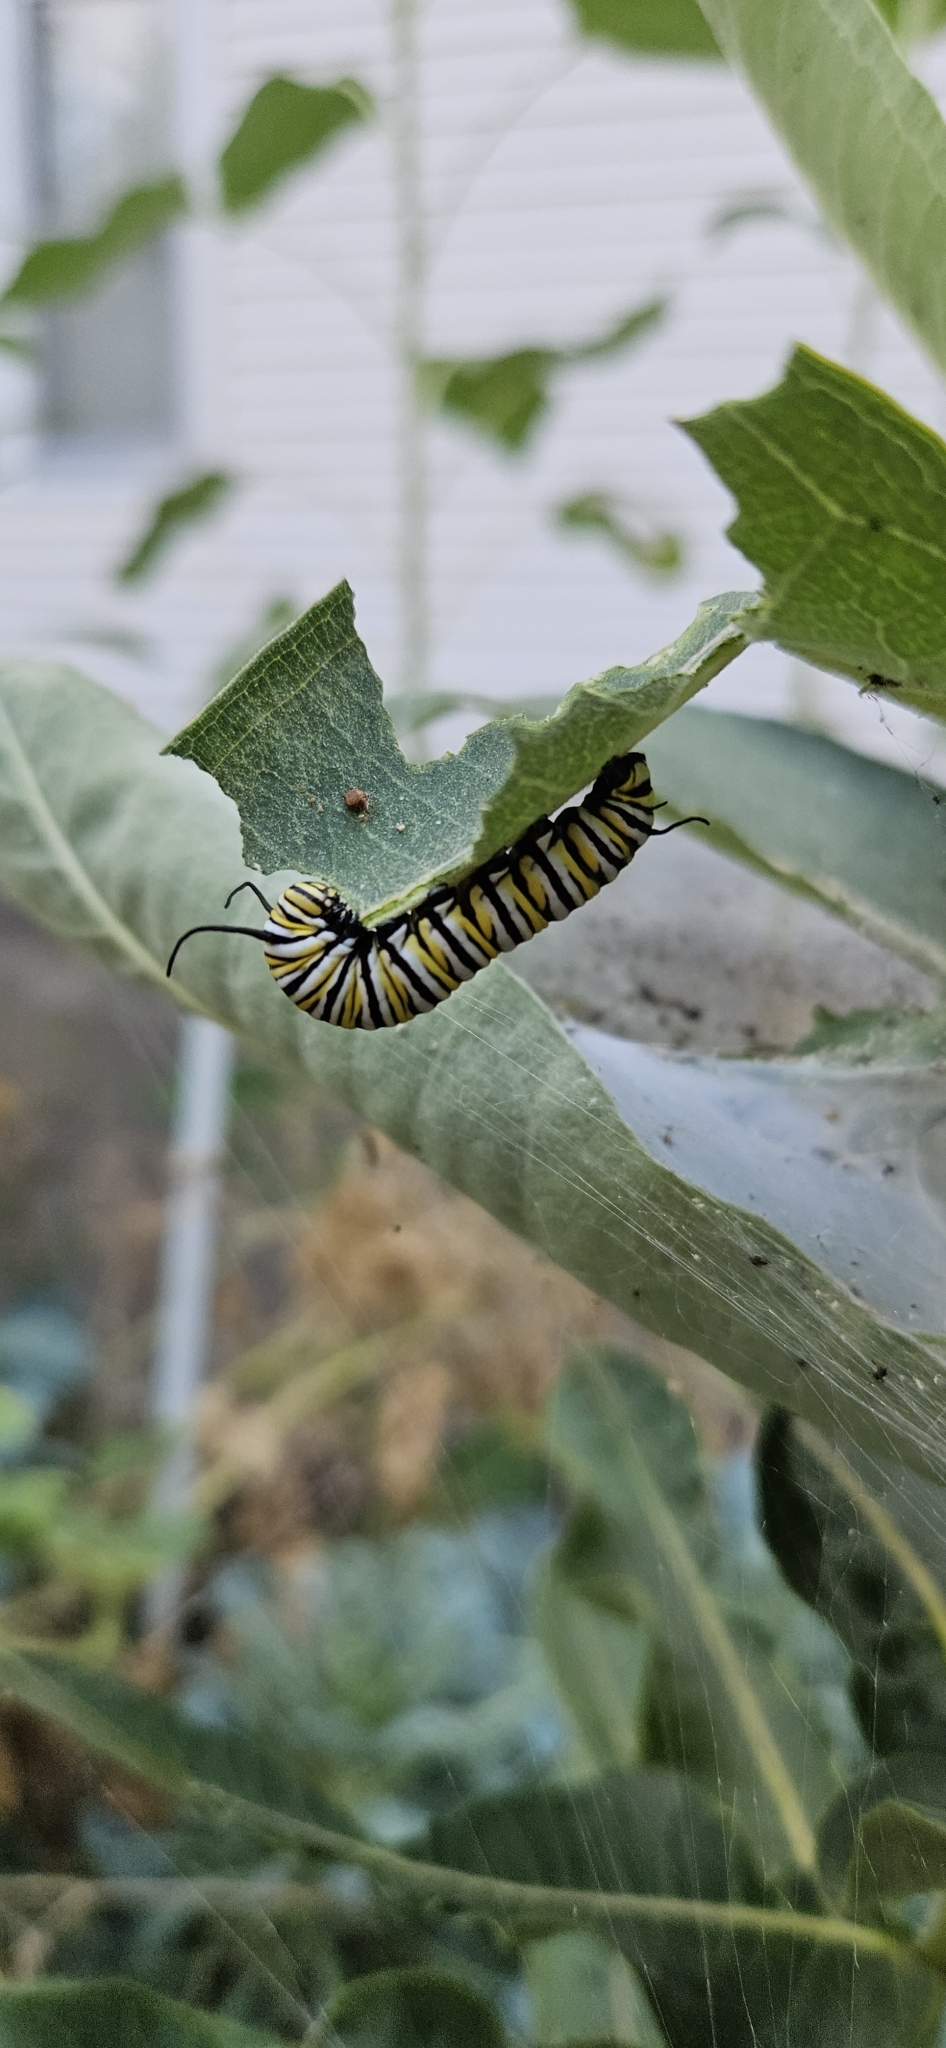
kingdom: Animalia
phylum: Arthropoda
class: Insecta
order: Lepidoptera
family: Nymphalidae
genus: Danaus
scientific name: Danaus plexippus
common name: Monarch
